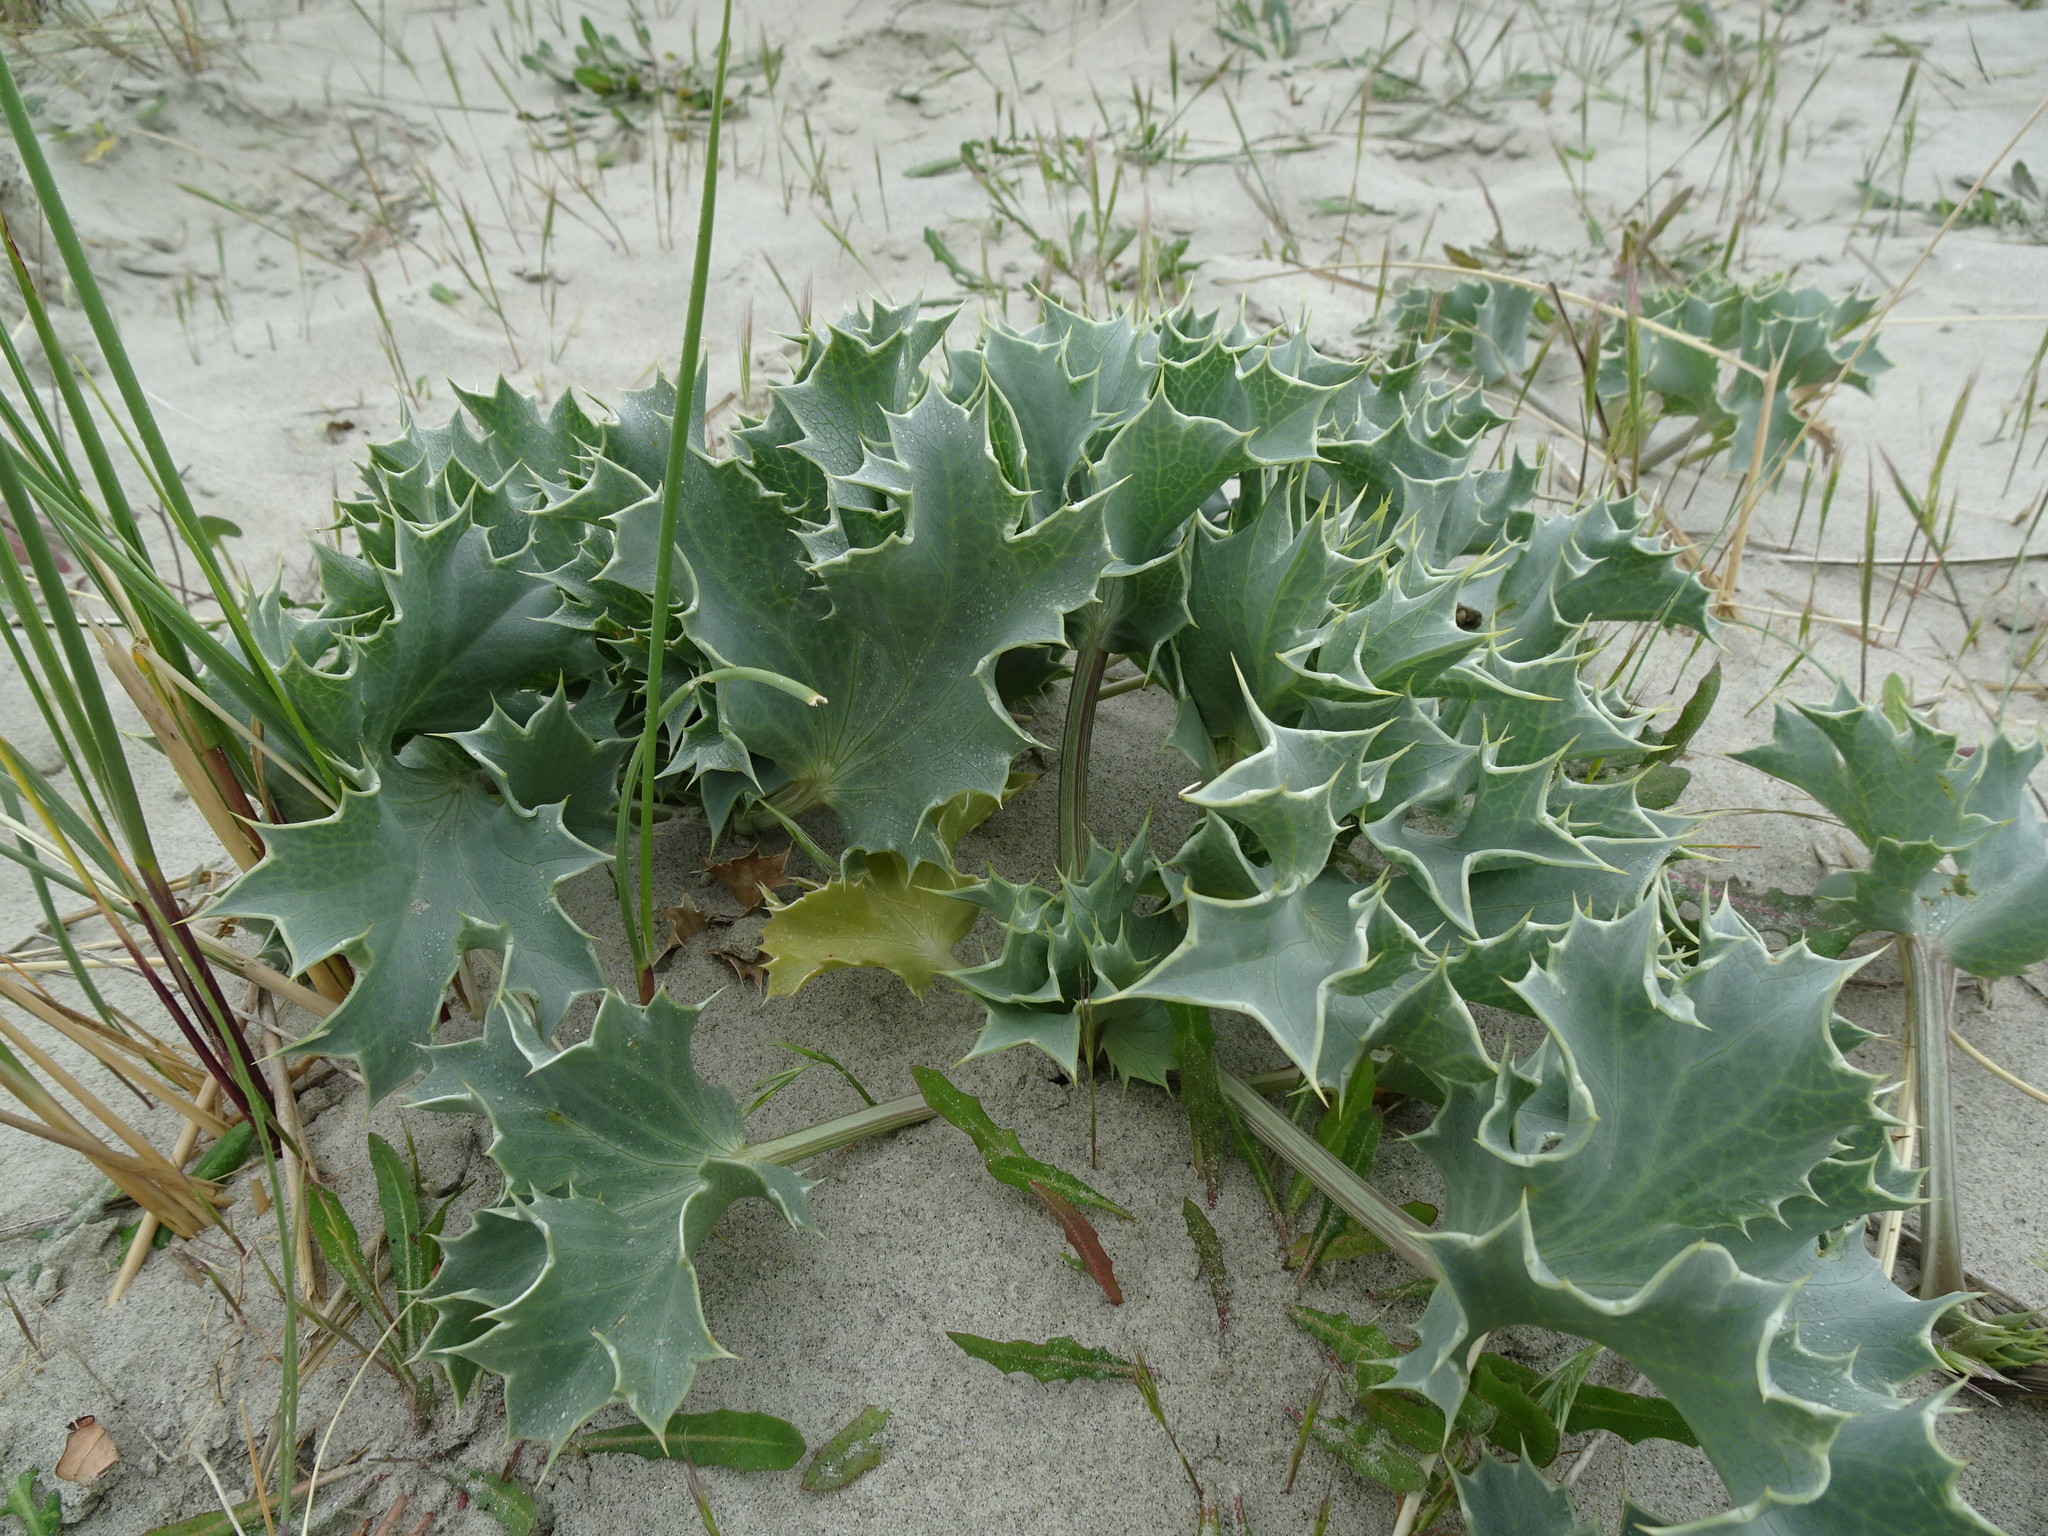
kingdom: Plantae
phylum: Tracheophyta
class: Magnoliopsida
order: Apiales
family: Apiaceae
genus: Eryngium
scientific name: Eryngium maritimum
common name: Sea-holly
